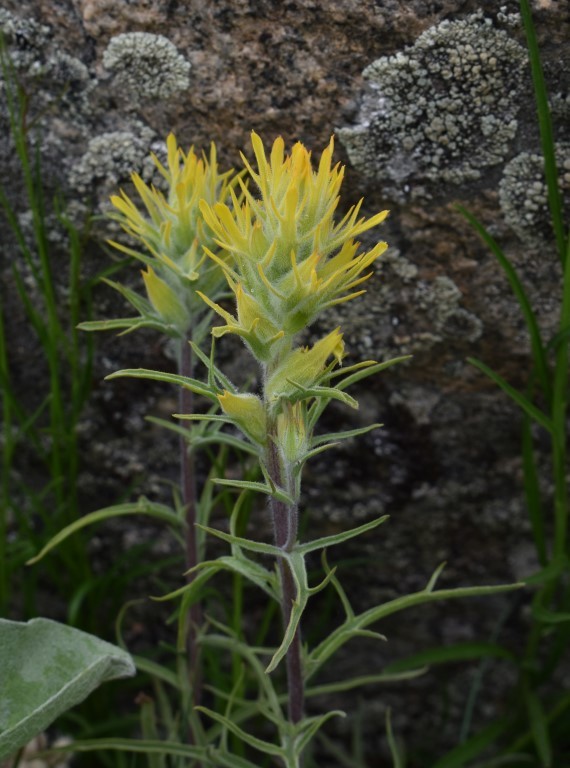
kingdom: Plantae
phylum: Tracheophyta
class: Magnoliopsida
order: Lamiales
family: Orobanchaceae
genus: Castilleja
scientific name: Castilleja flava
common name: Yellow paintbrush
